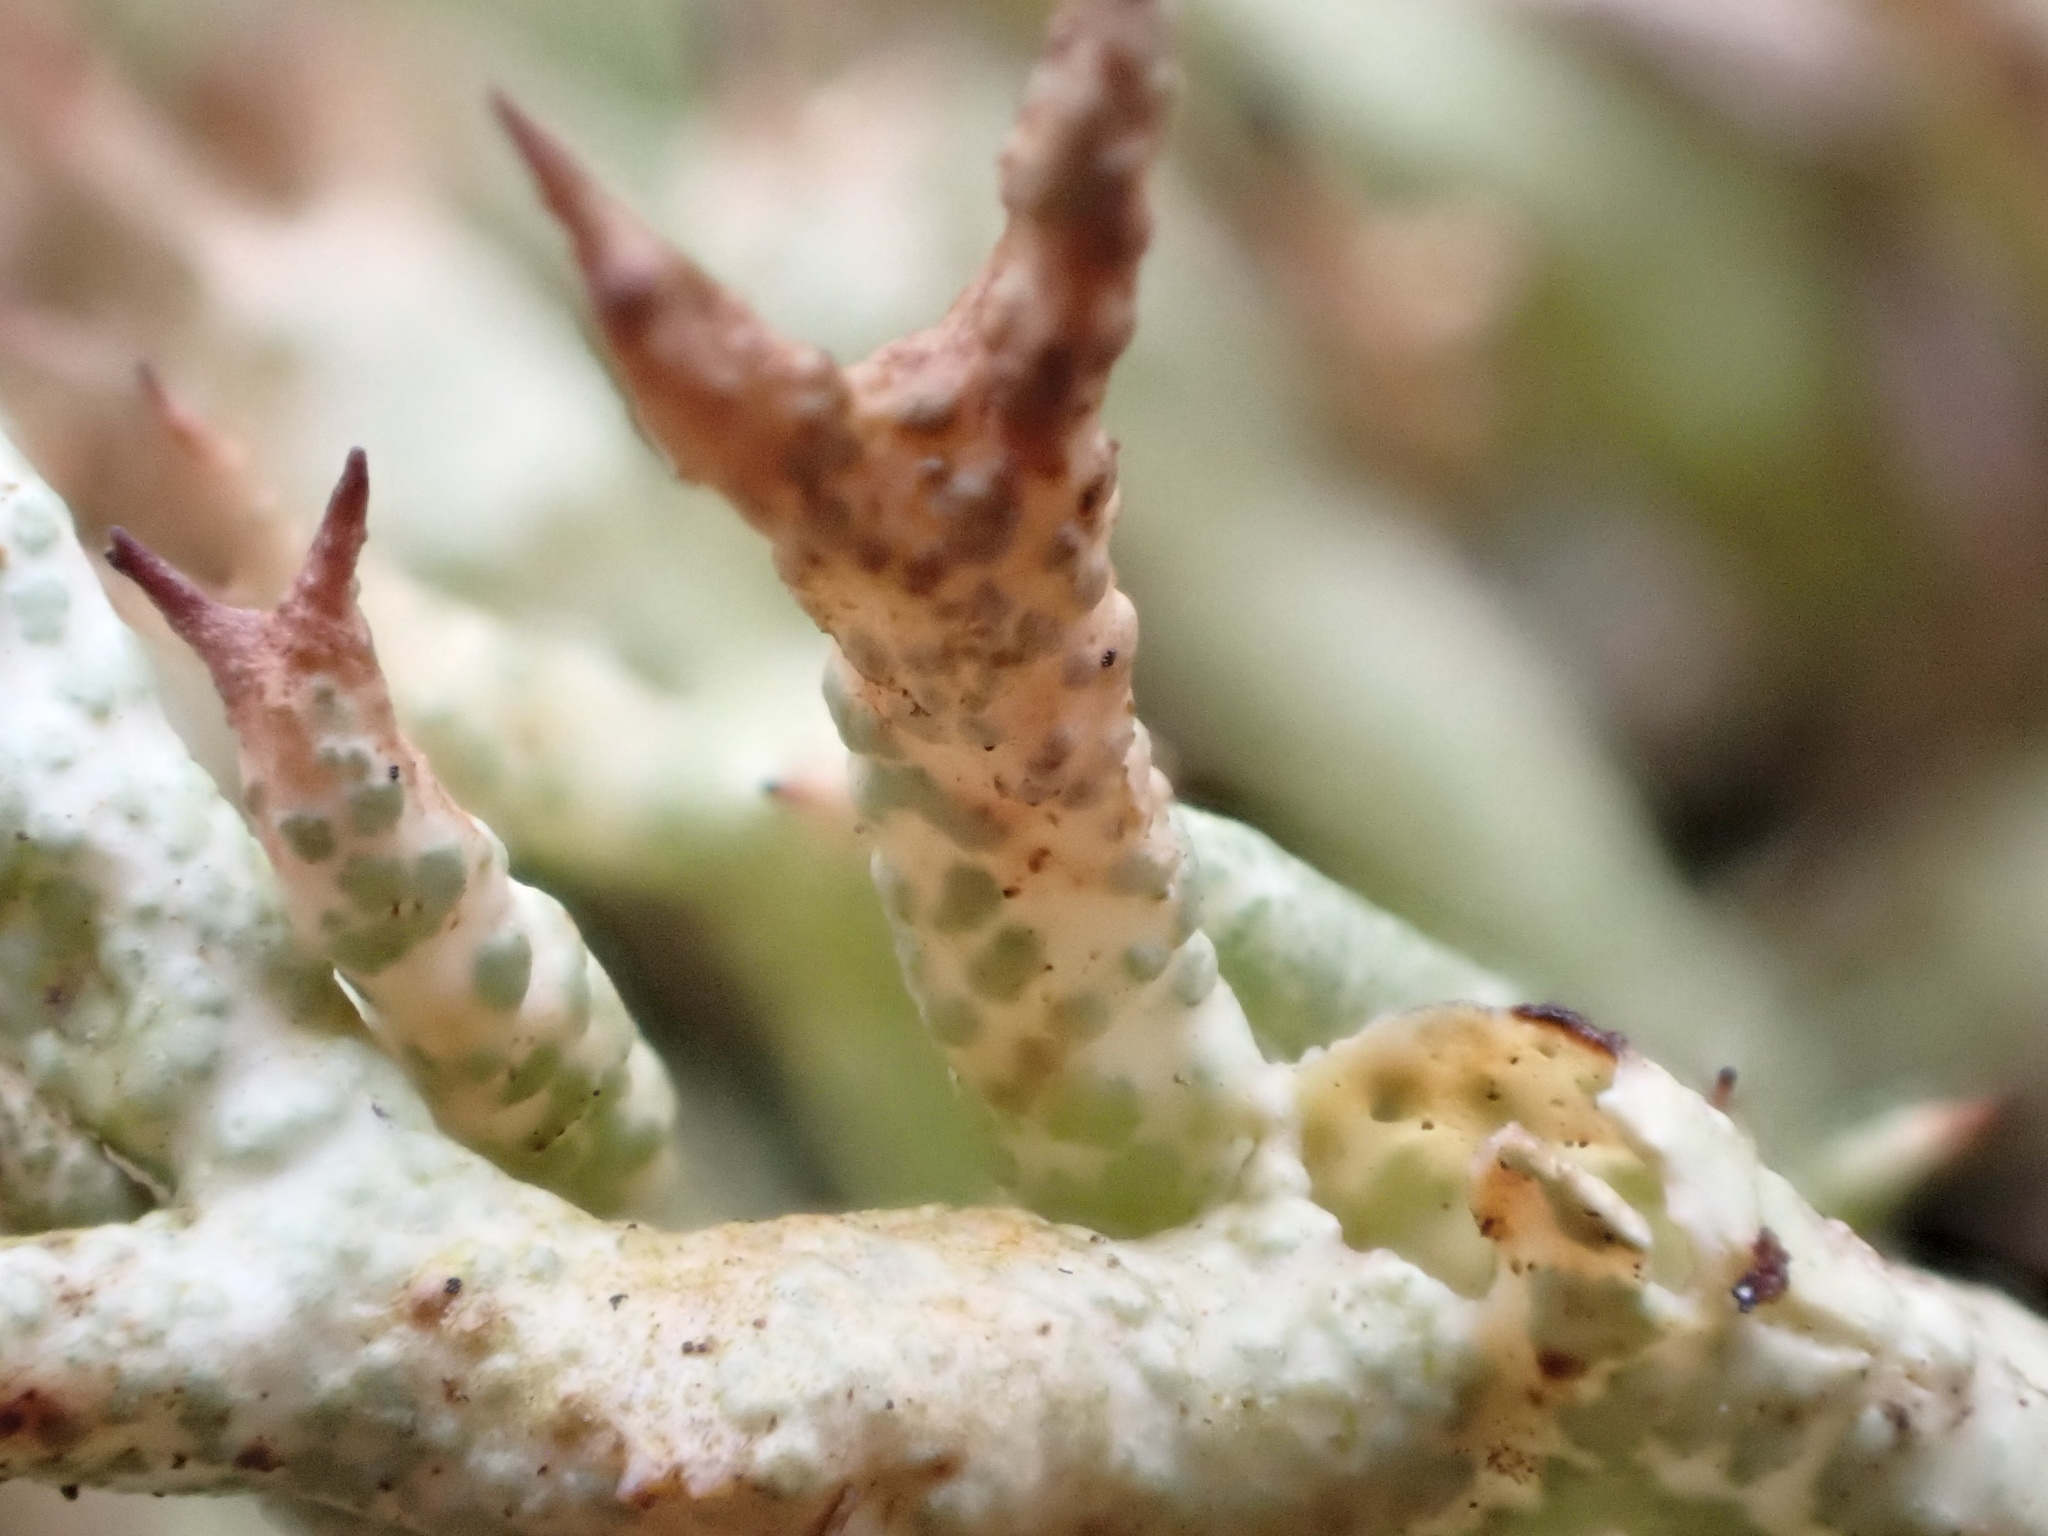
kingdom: Fungi
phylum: Ascomycota
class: Lecanoromycetes
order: Lecanorales
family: Cladoniaceae
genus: Cladonia
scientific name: Cladonia uncialis
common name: Thorn lichen
